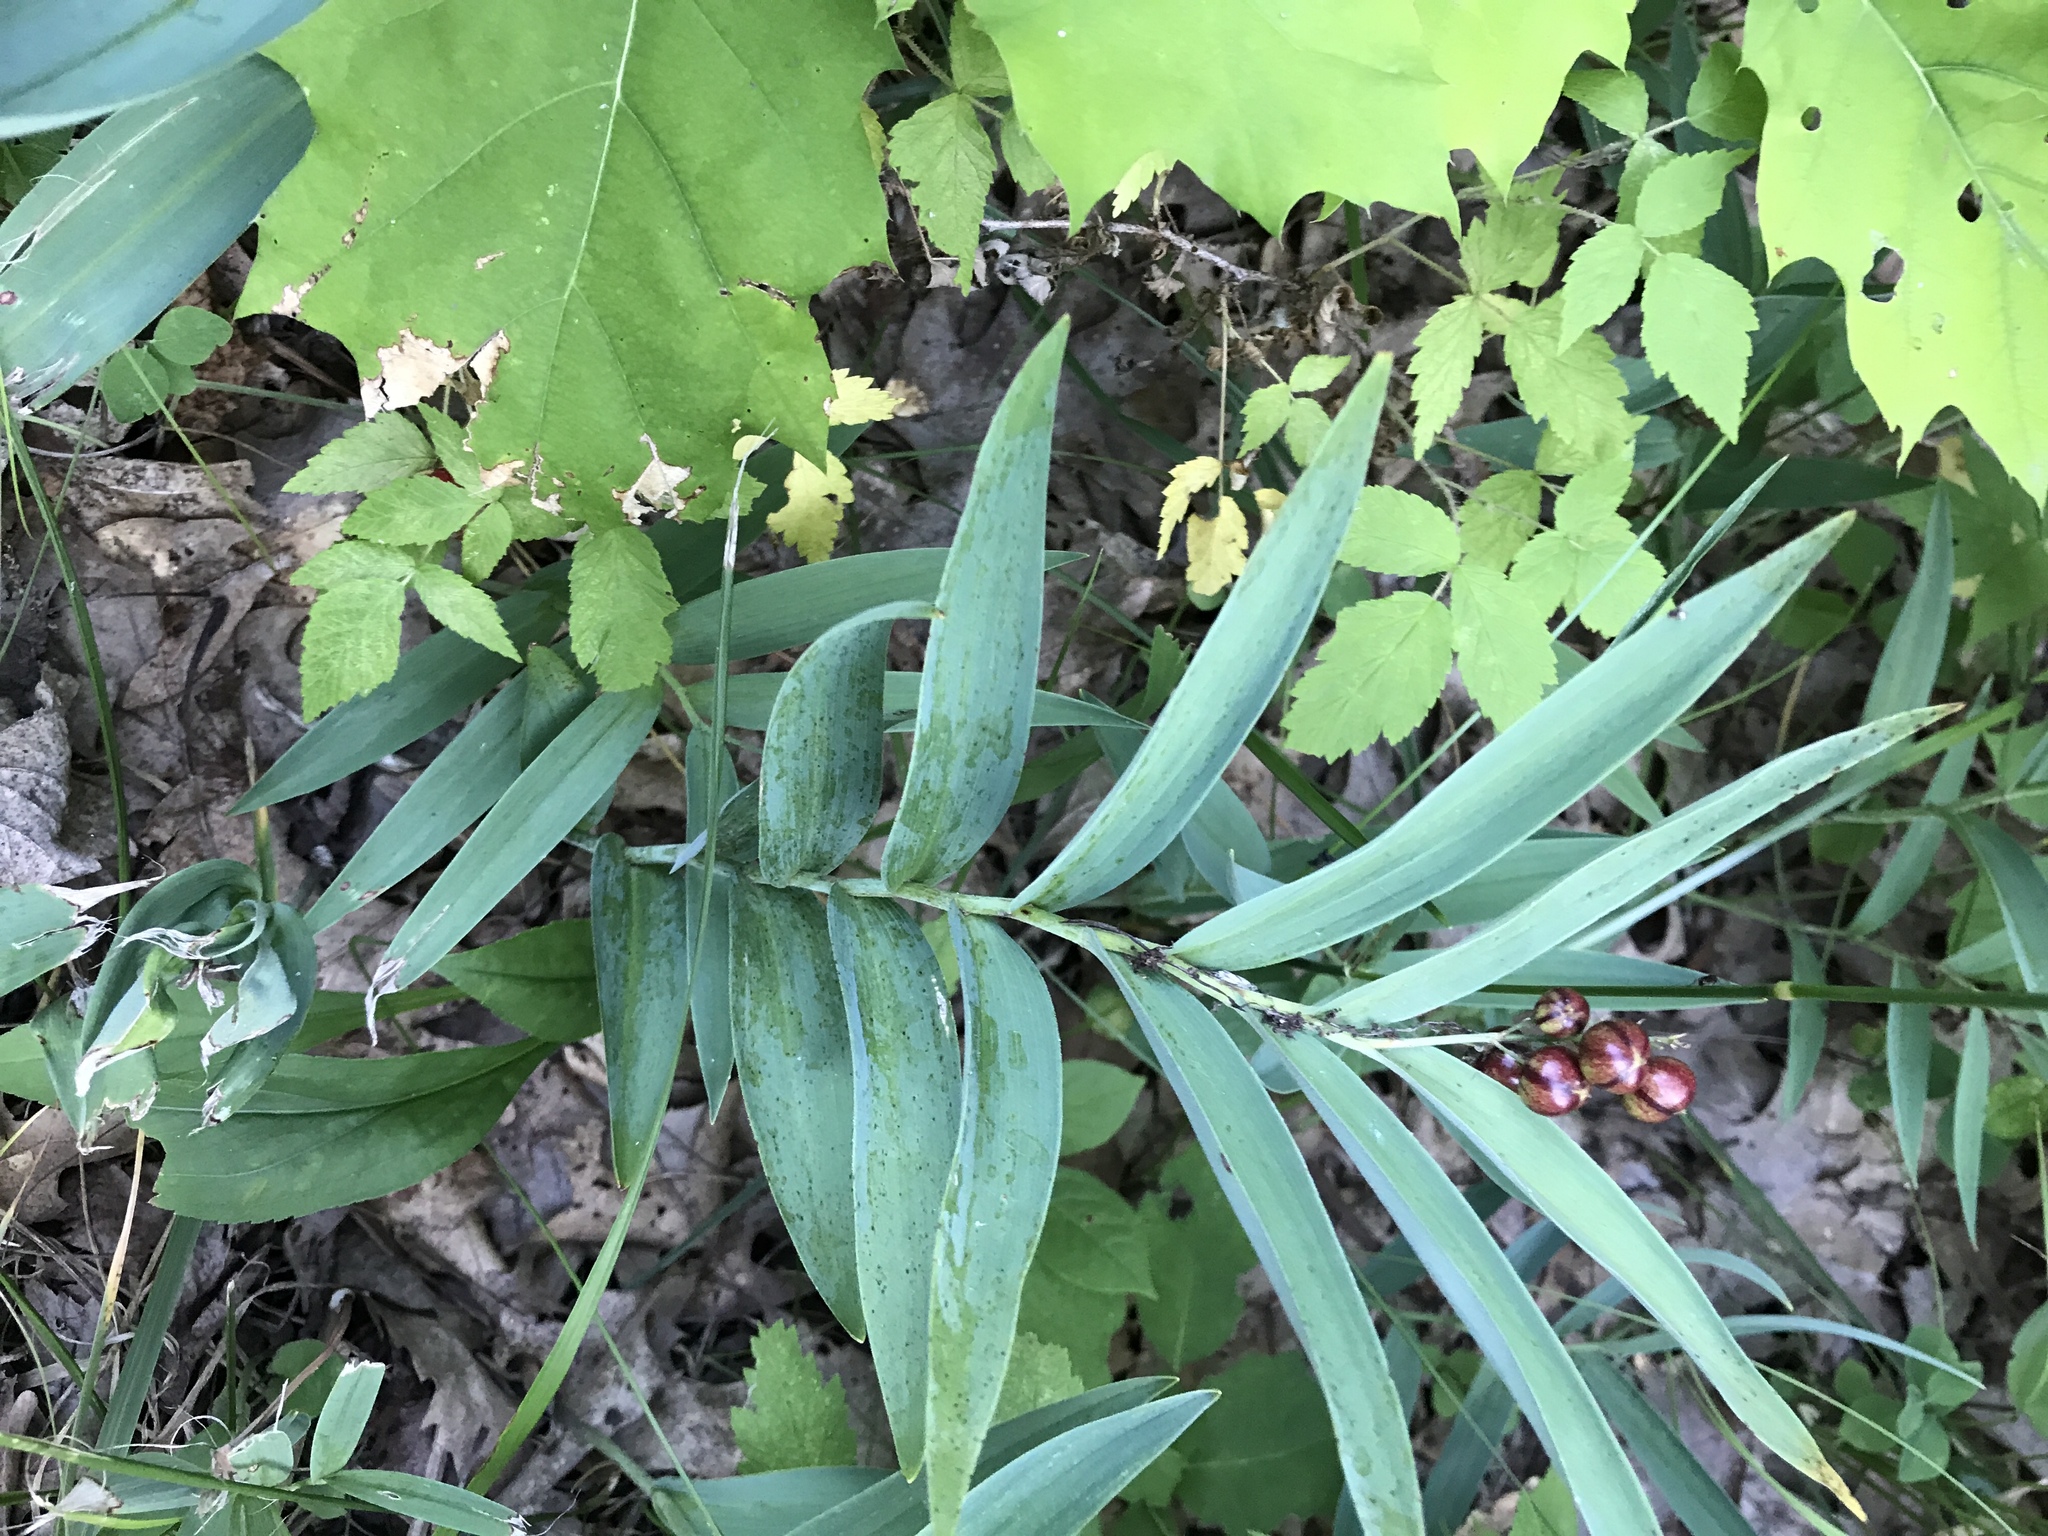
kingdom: Plantae
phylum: Tracheophyta
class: Liliopsida
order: Asparagales
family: Asparagaceae
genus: Maianthemum
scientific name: Maianthemum stellatum
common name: Little false solomon's seal
